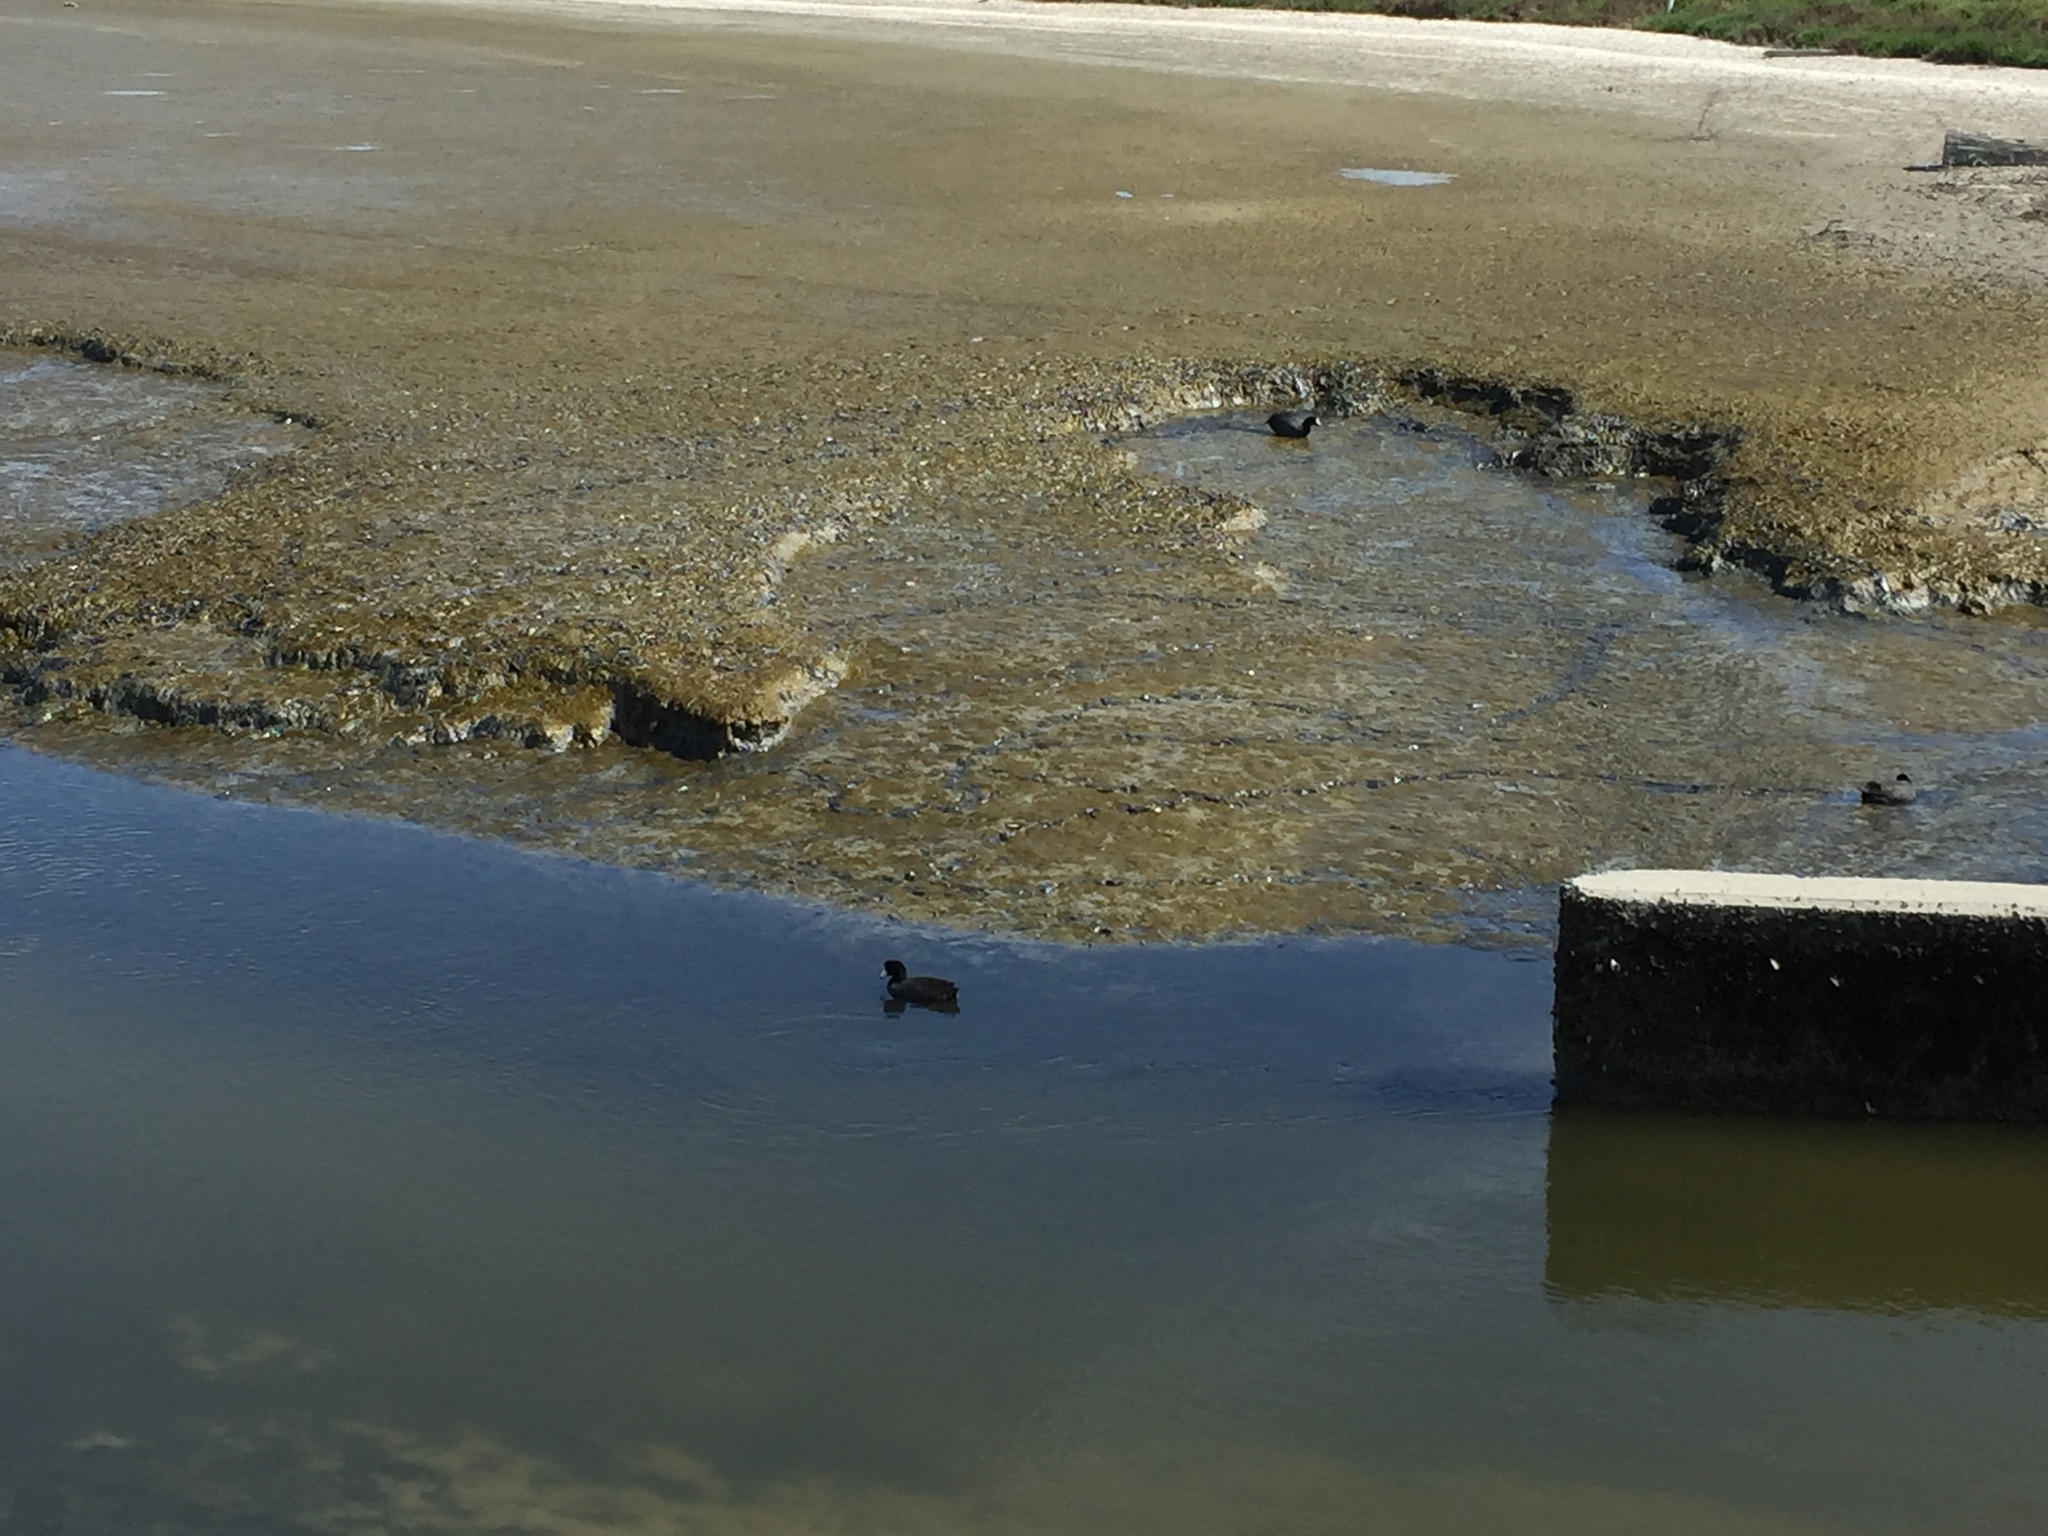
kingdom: Animalia
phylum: Chordata
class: Aves
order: Gruiformes
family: Rallidae
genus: Fulica
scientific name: Fulica americana
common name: American coot
